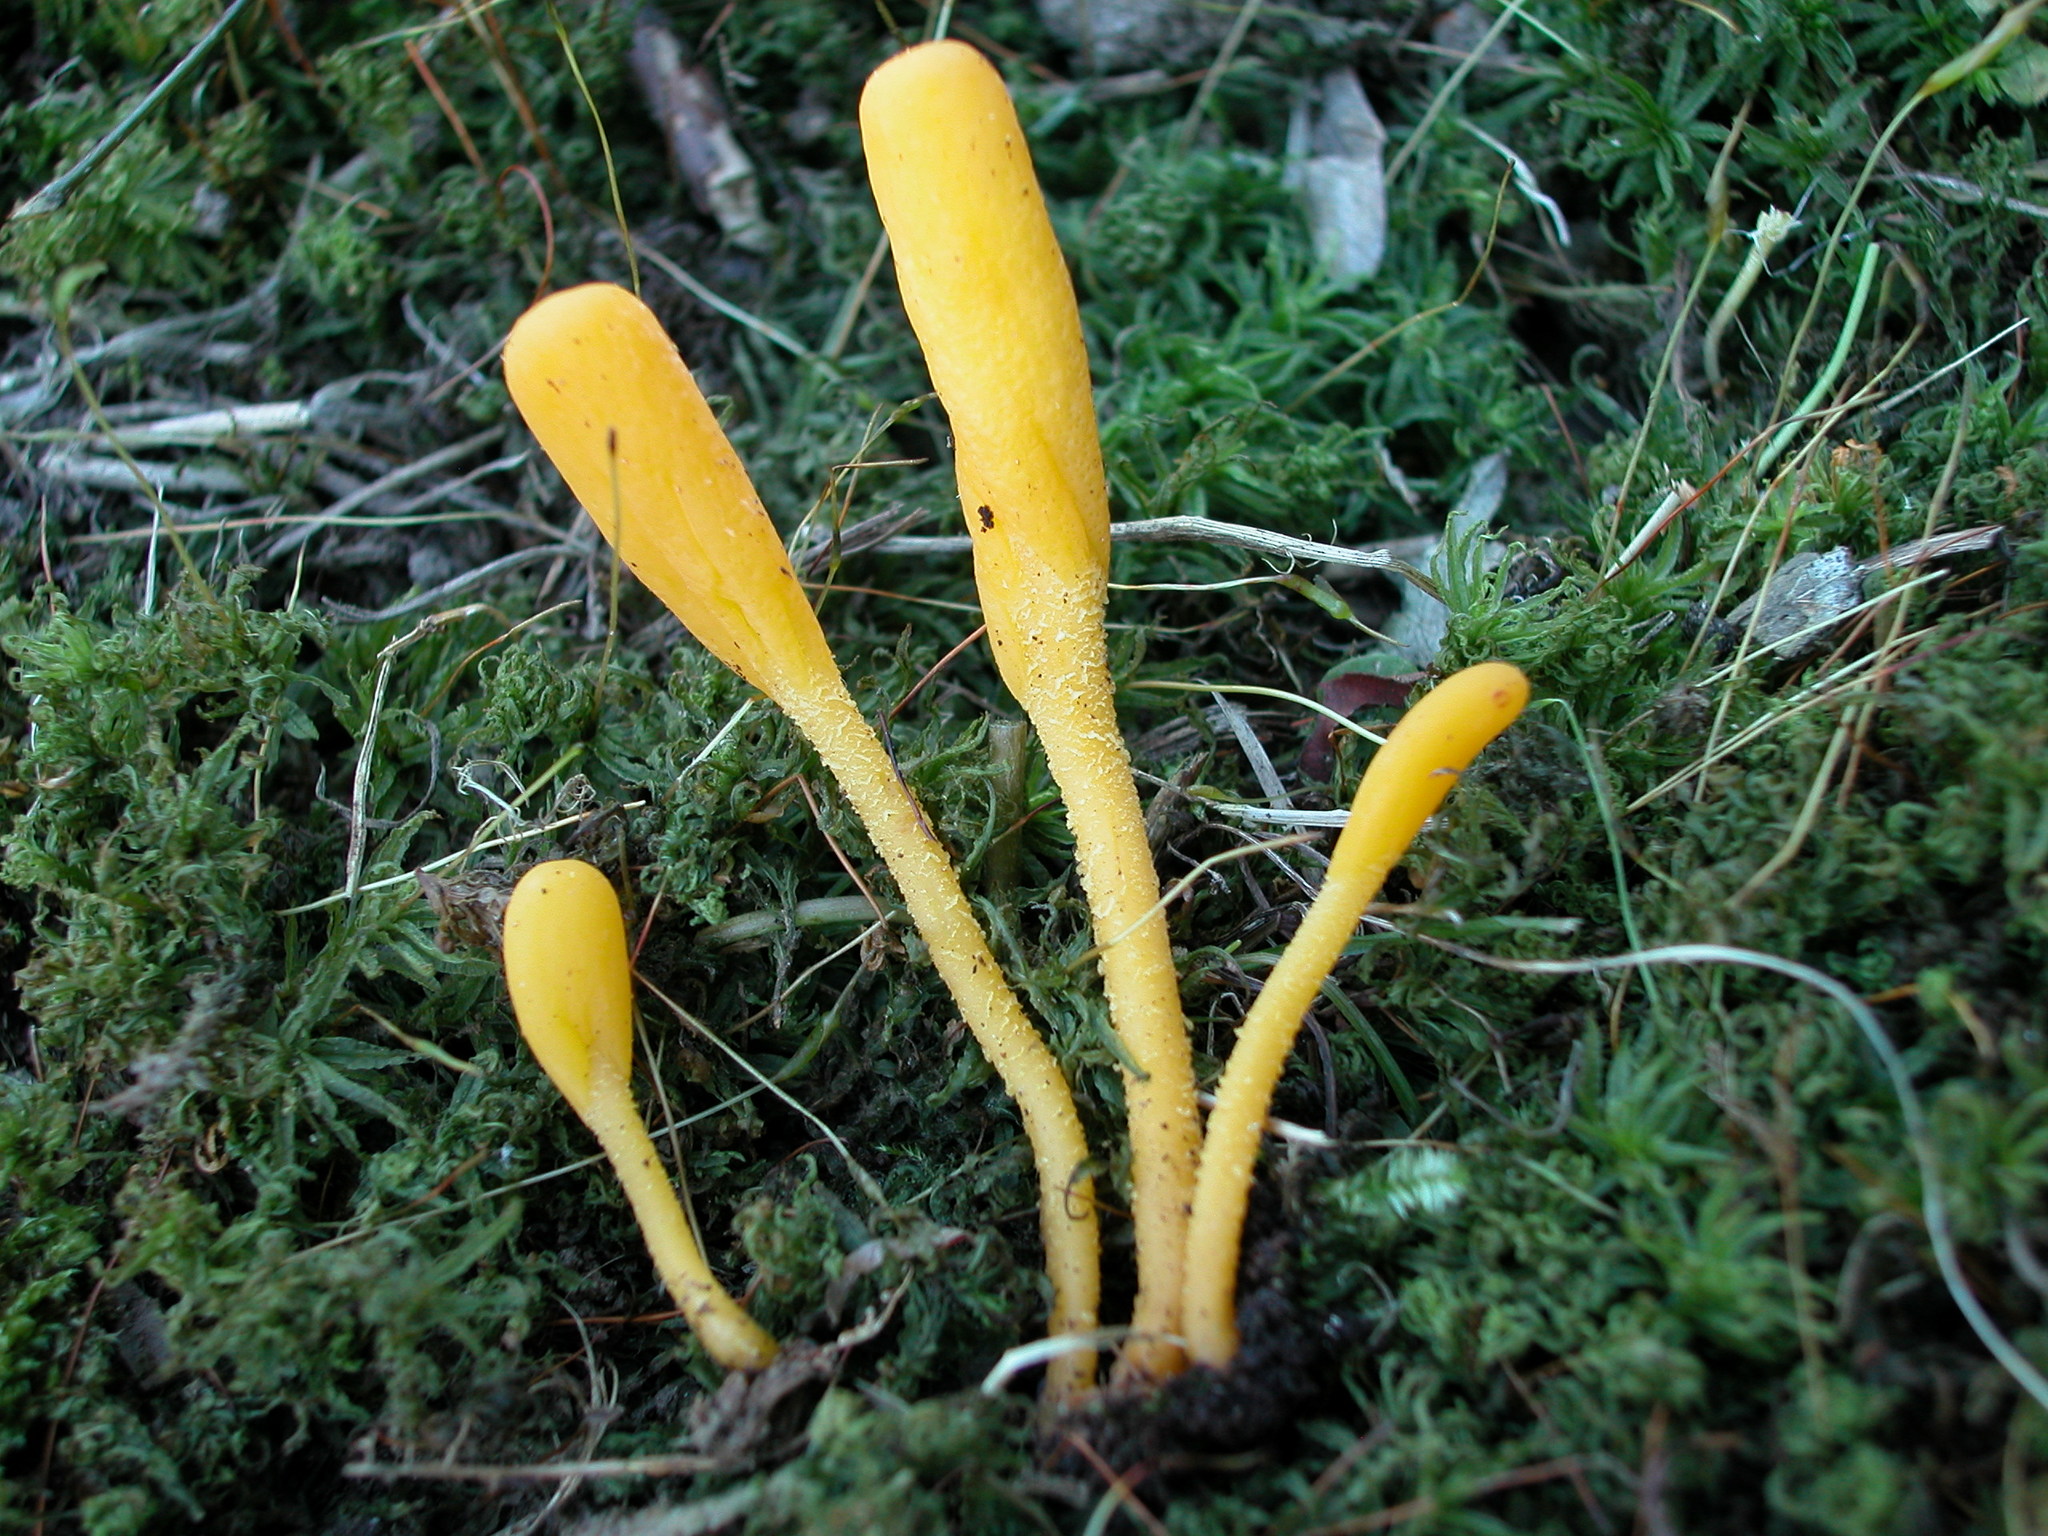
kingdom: Fungi
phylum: Ascomycota
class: Leotiomycetes
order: Leotiales
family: Leotiaceae
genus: Microglossum
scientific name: Microglossum rufum
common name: Orange earthtongue
